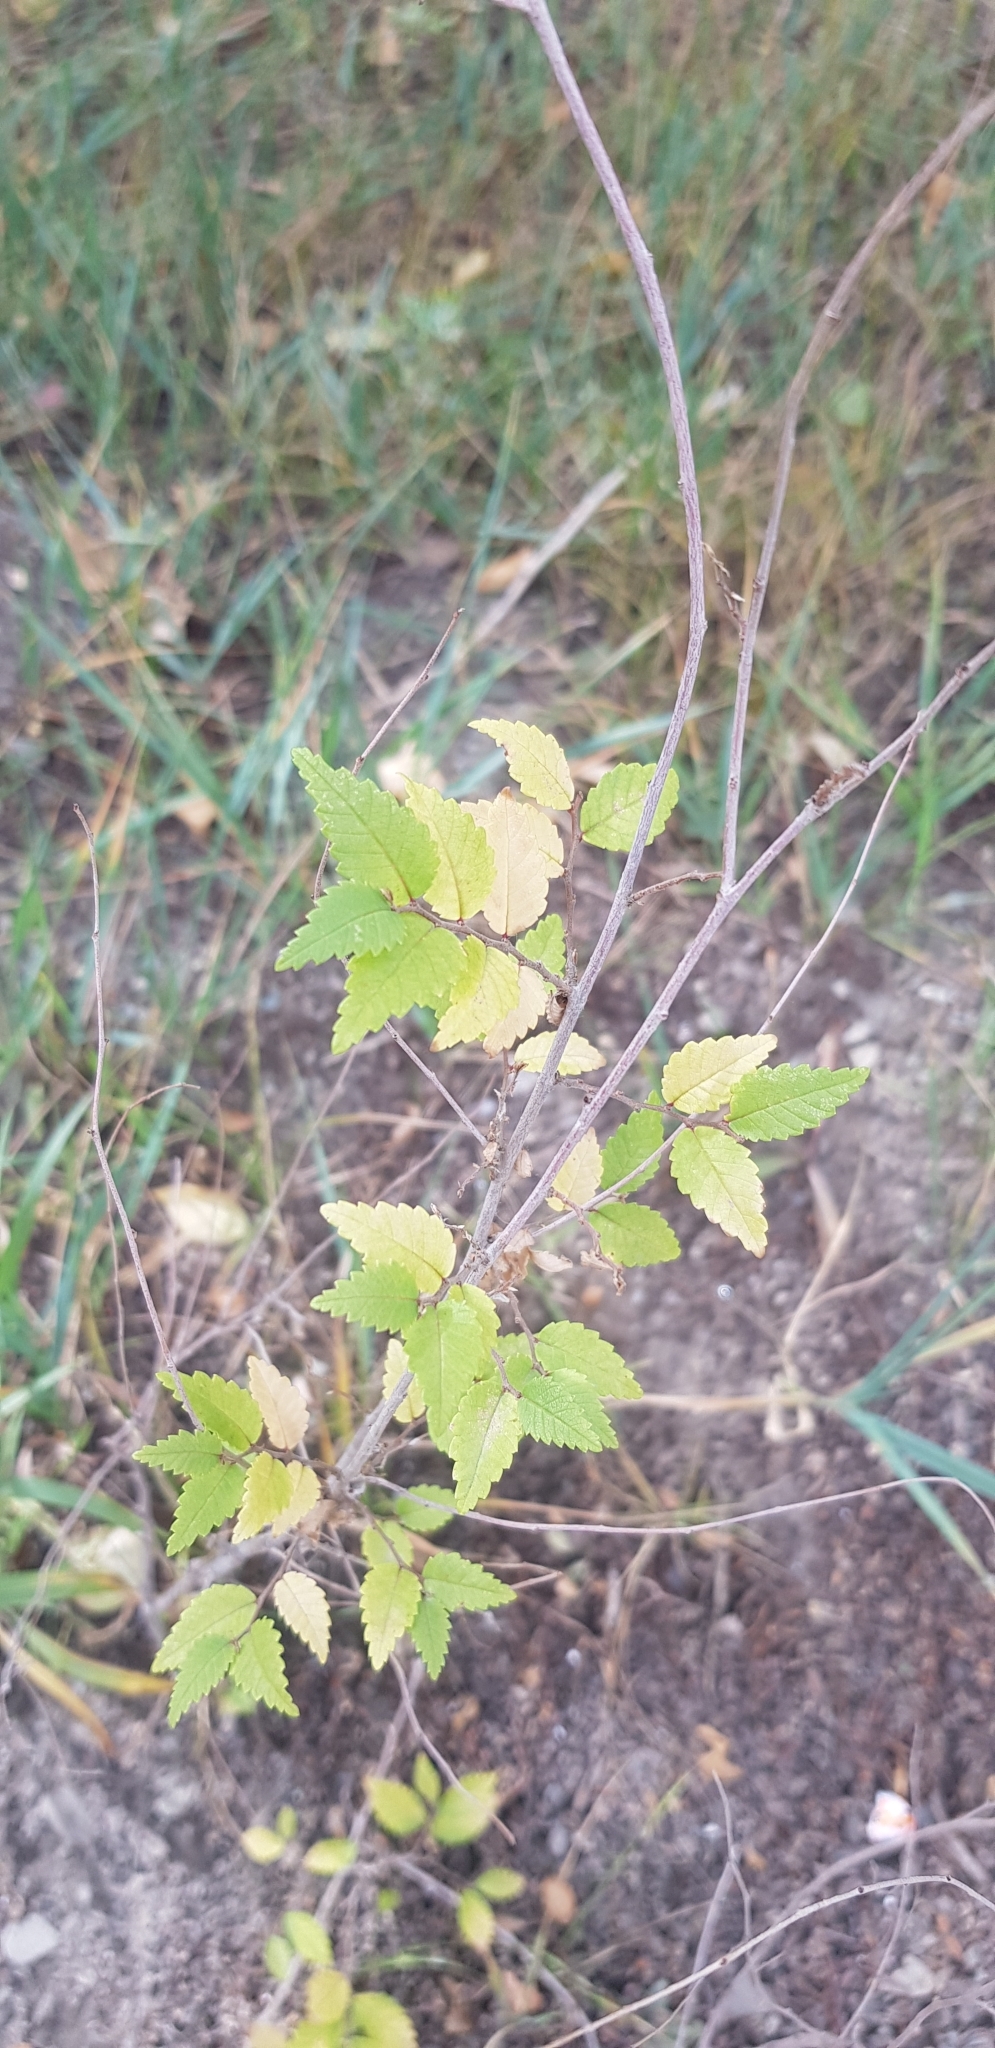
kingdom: Plantae
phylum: Tracheophyta
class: Magnoliopsida
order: Rosales
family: Ulmaceae
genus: Ulmus
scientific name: Ulmus pumila
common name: Siberian elm
